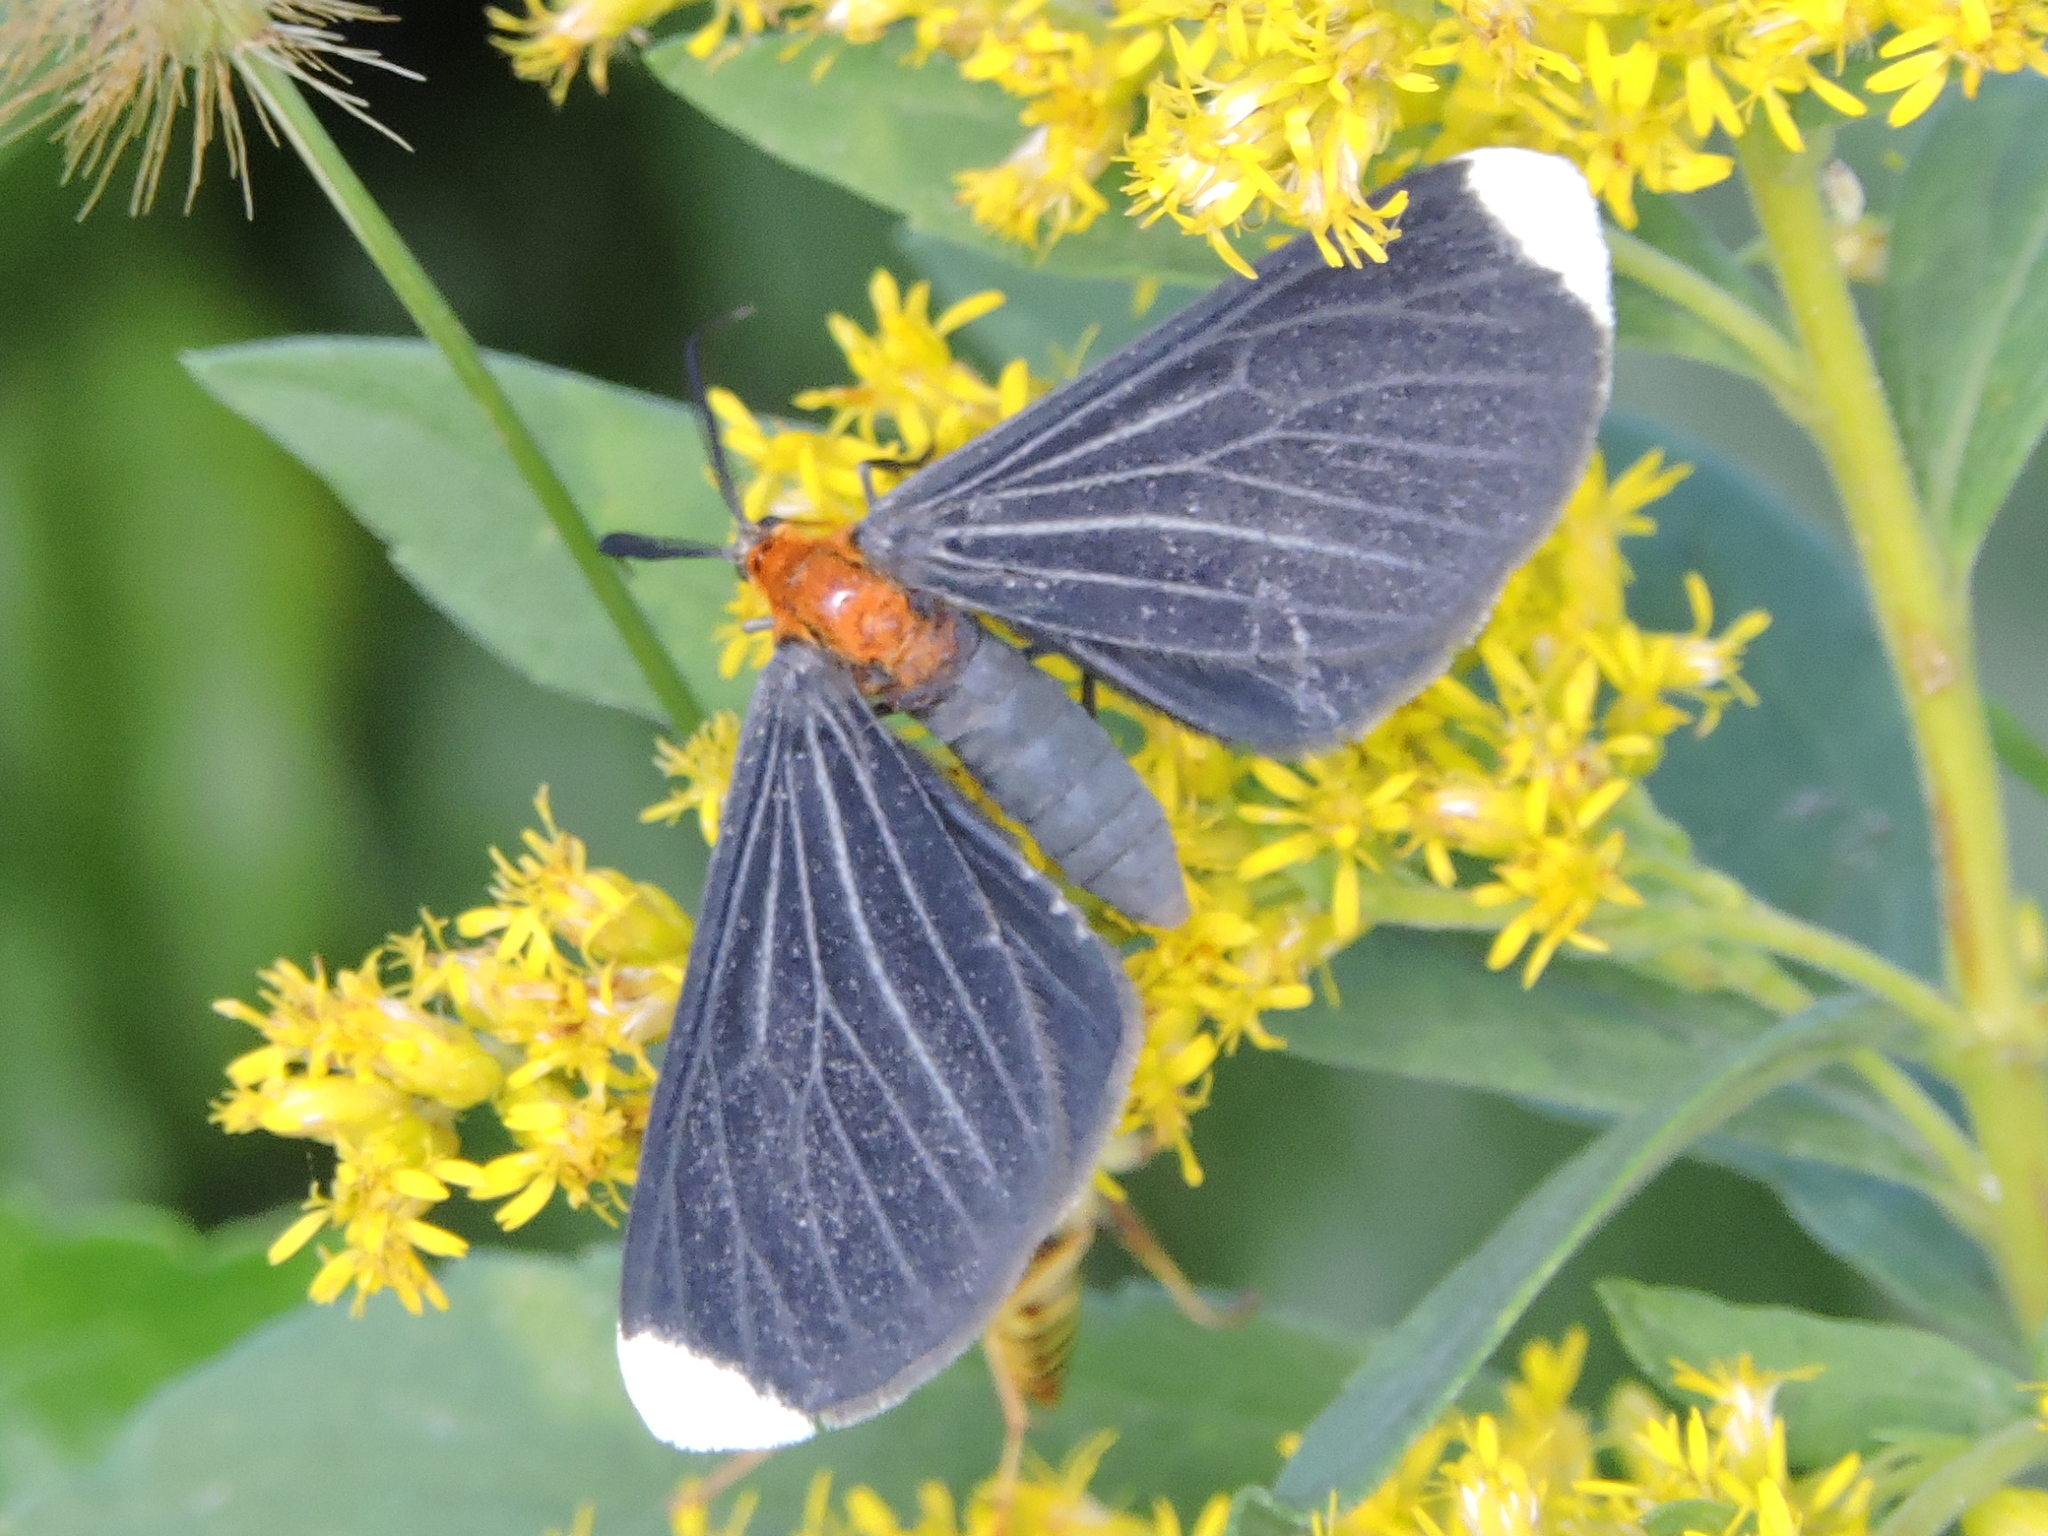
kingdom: Animalia
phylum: Arthropoda
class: Insecta
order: Lepidoptera
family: Geometridae
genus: Melanchroia
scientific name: Melanchroia chephise
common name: White-tipped black
